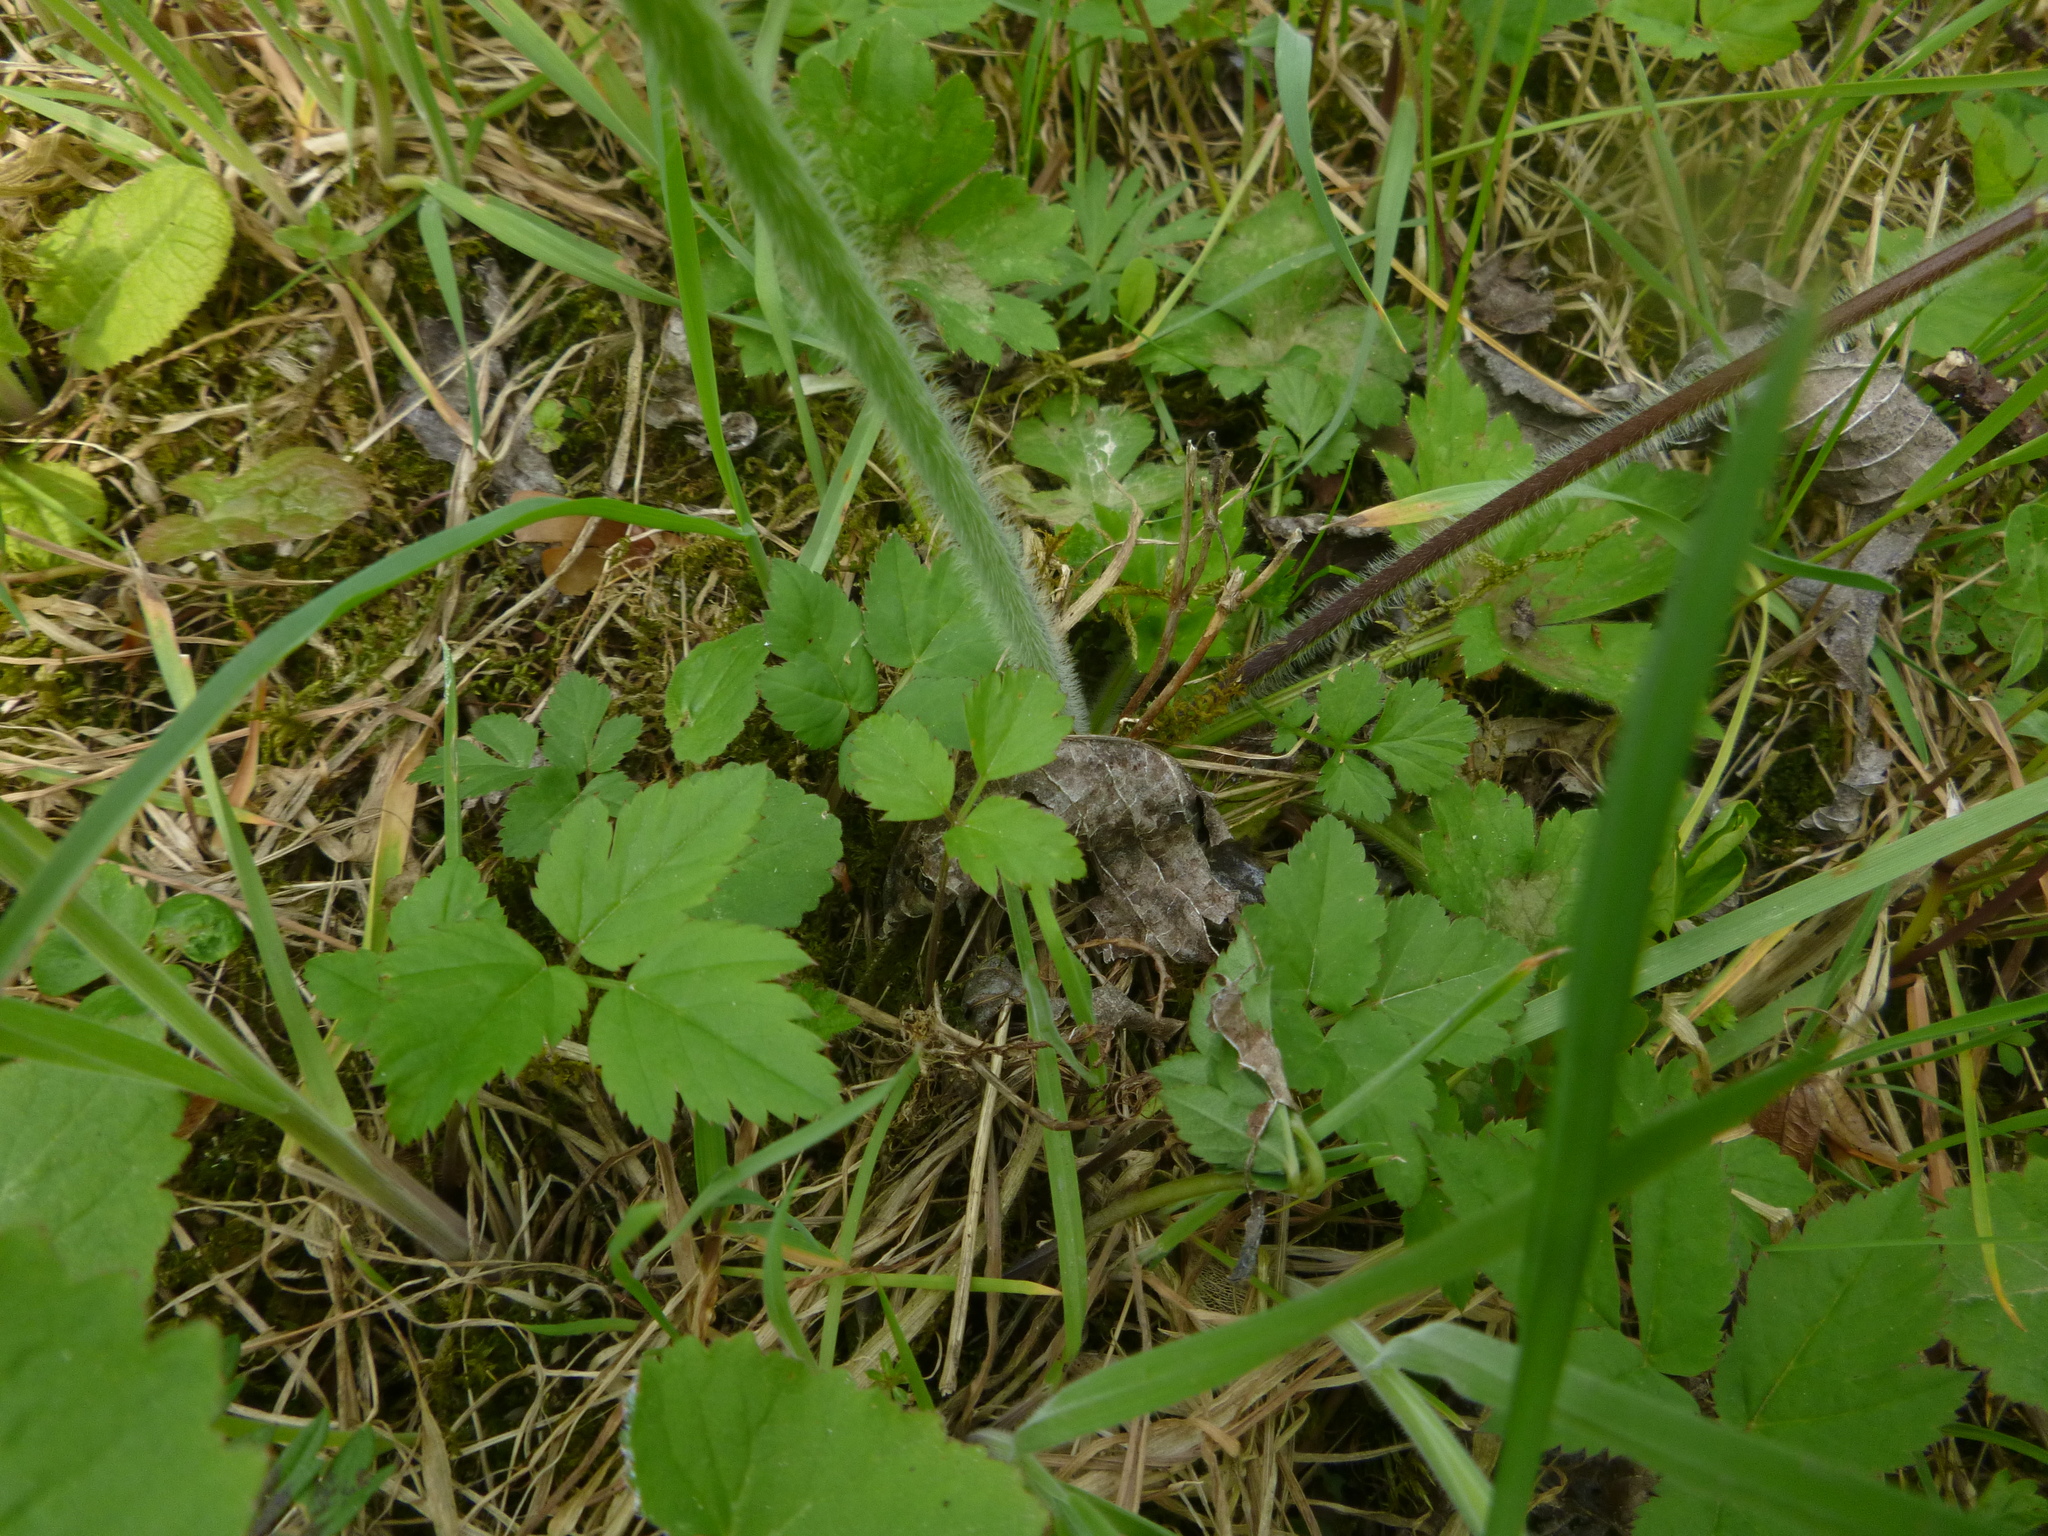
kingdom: Plantae
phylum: Tracheophyta
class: Magnoliopsida
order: Ranunculales
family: Ranunculaceae
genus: Ranunculus
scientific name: Ranunculus lanuginosus
